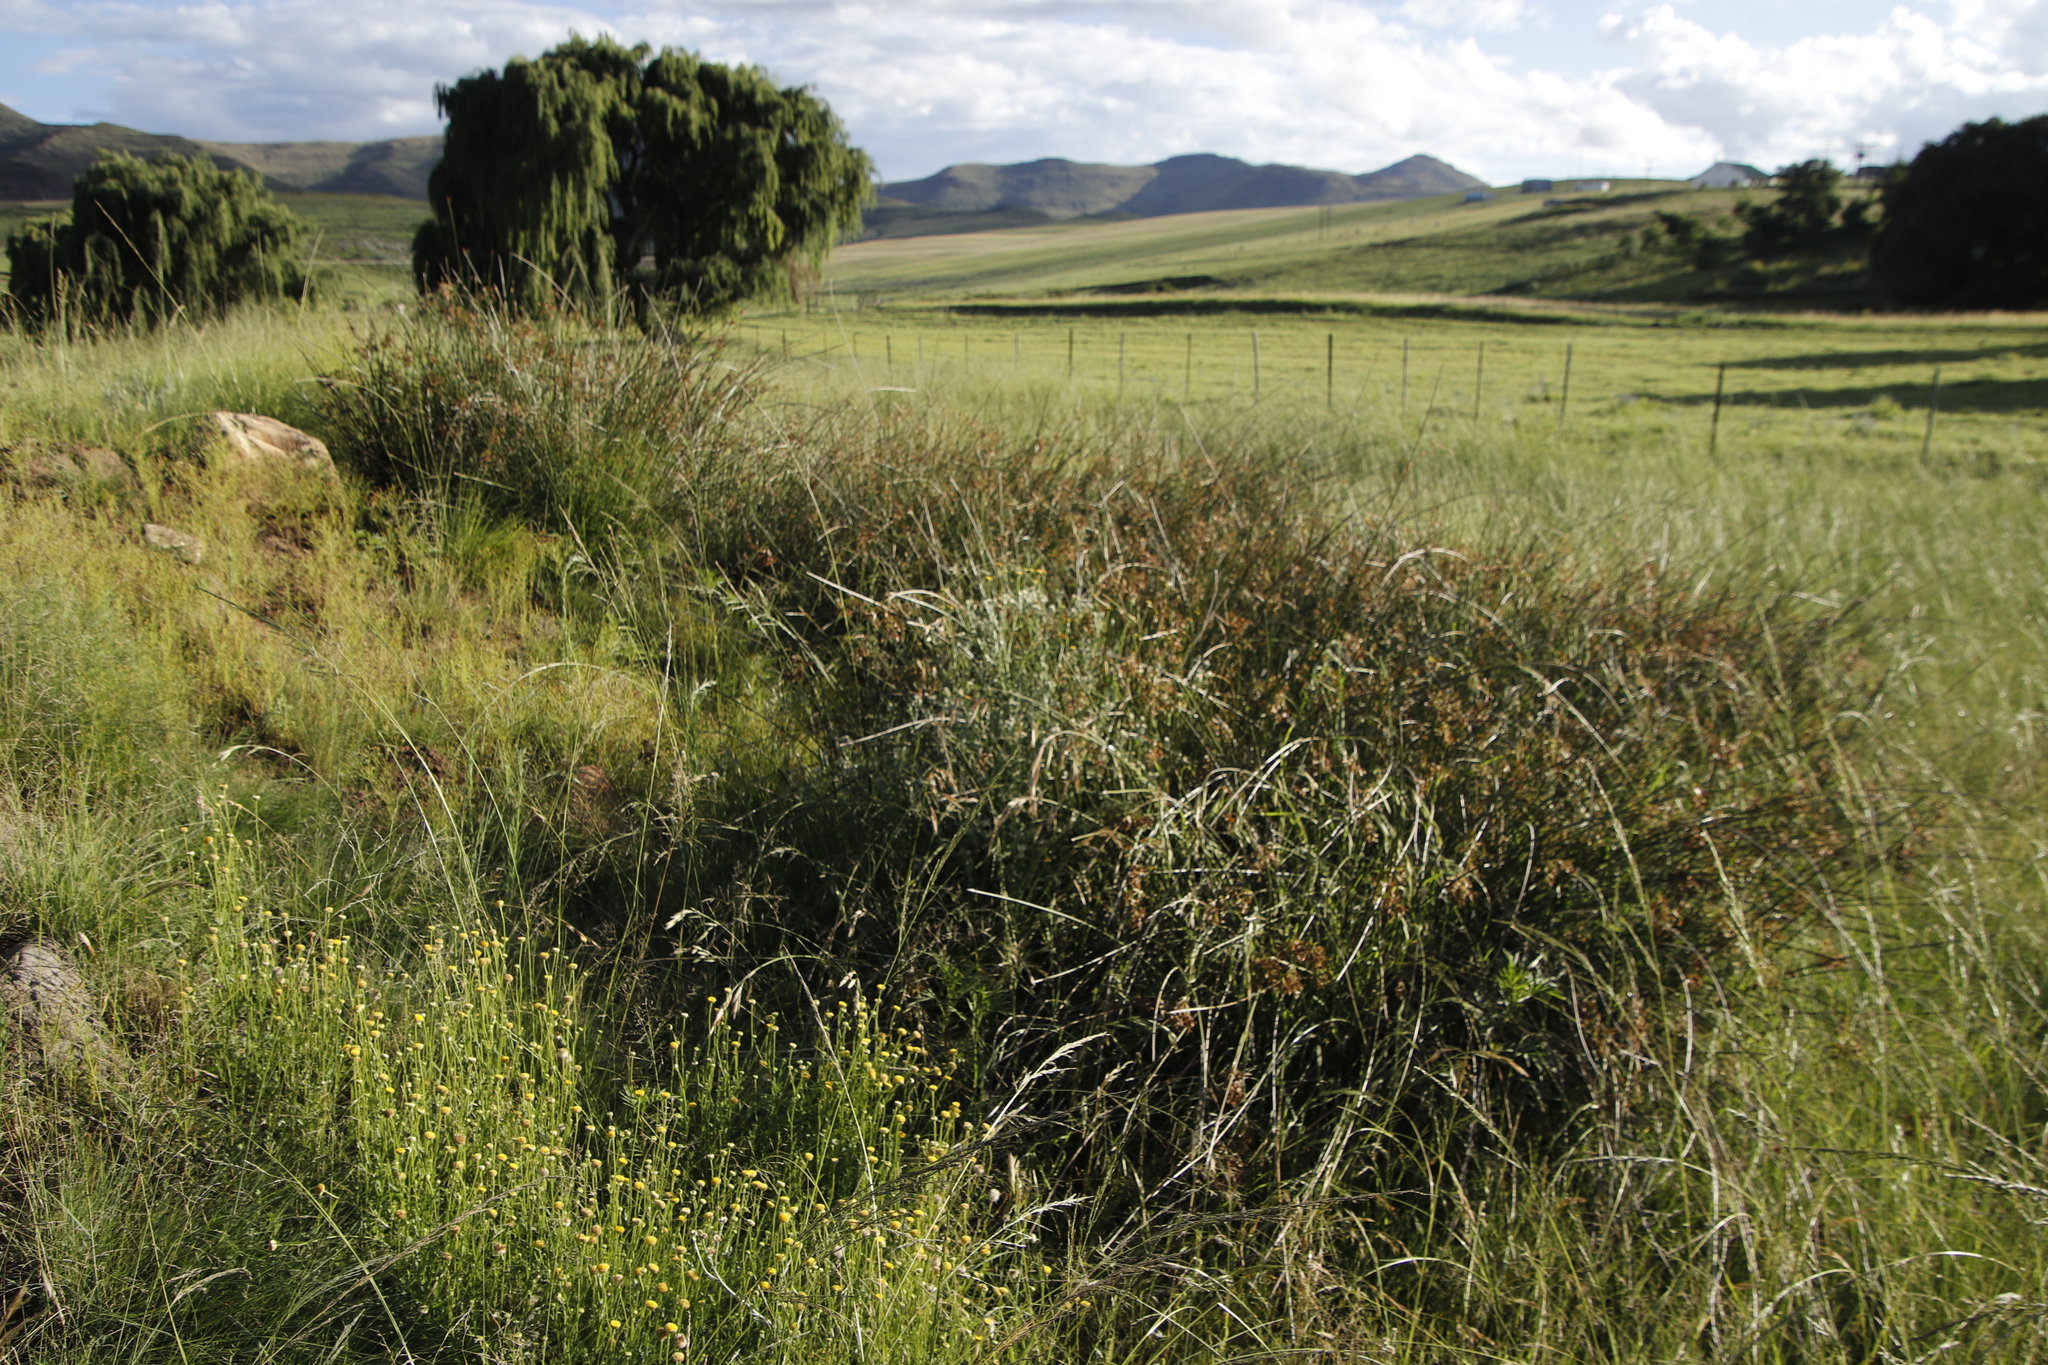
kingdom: Plantae
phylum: Tracheophyta
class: Liliopsida
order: Poales
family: Cyperaceae
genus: Cyperus
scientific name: Cyperus marginatus
